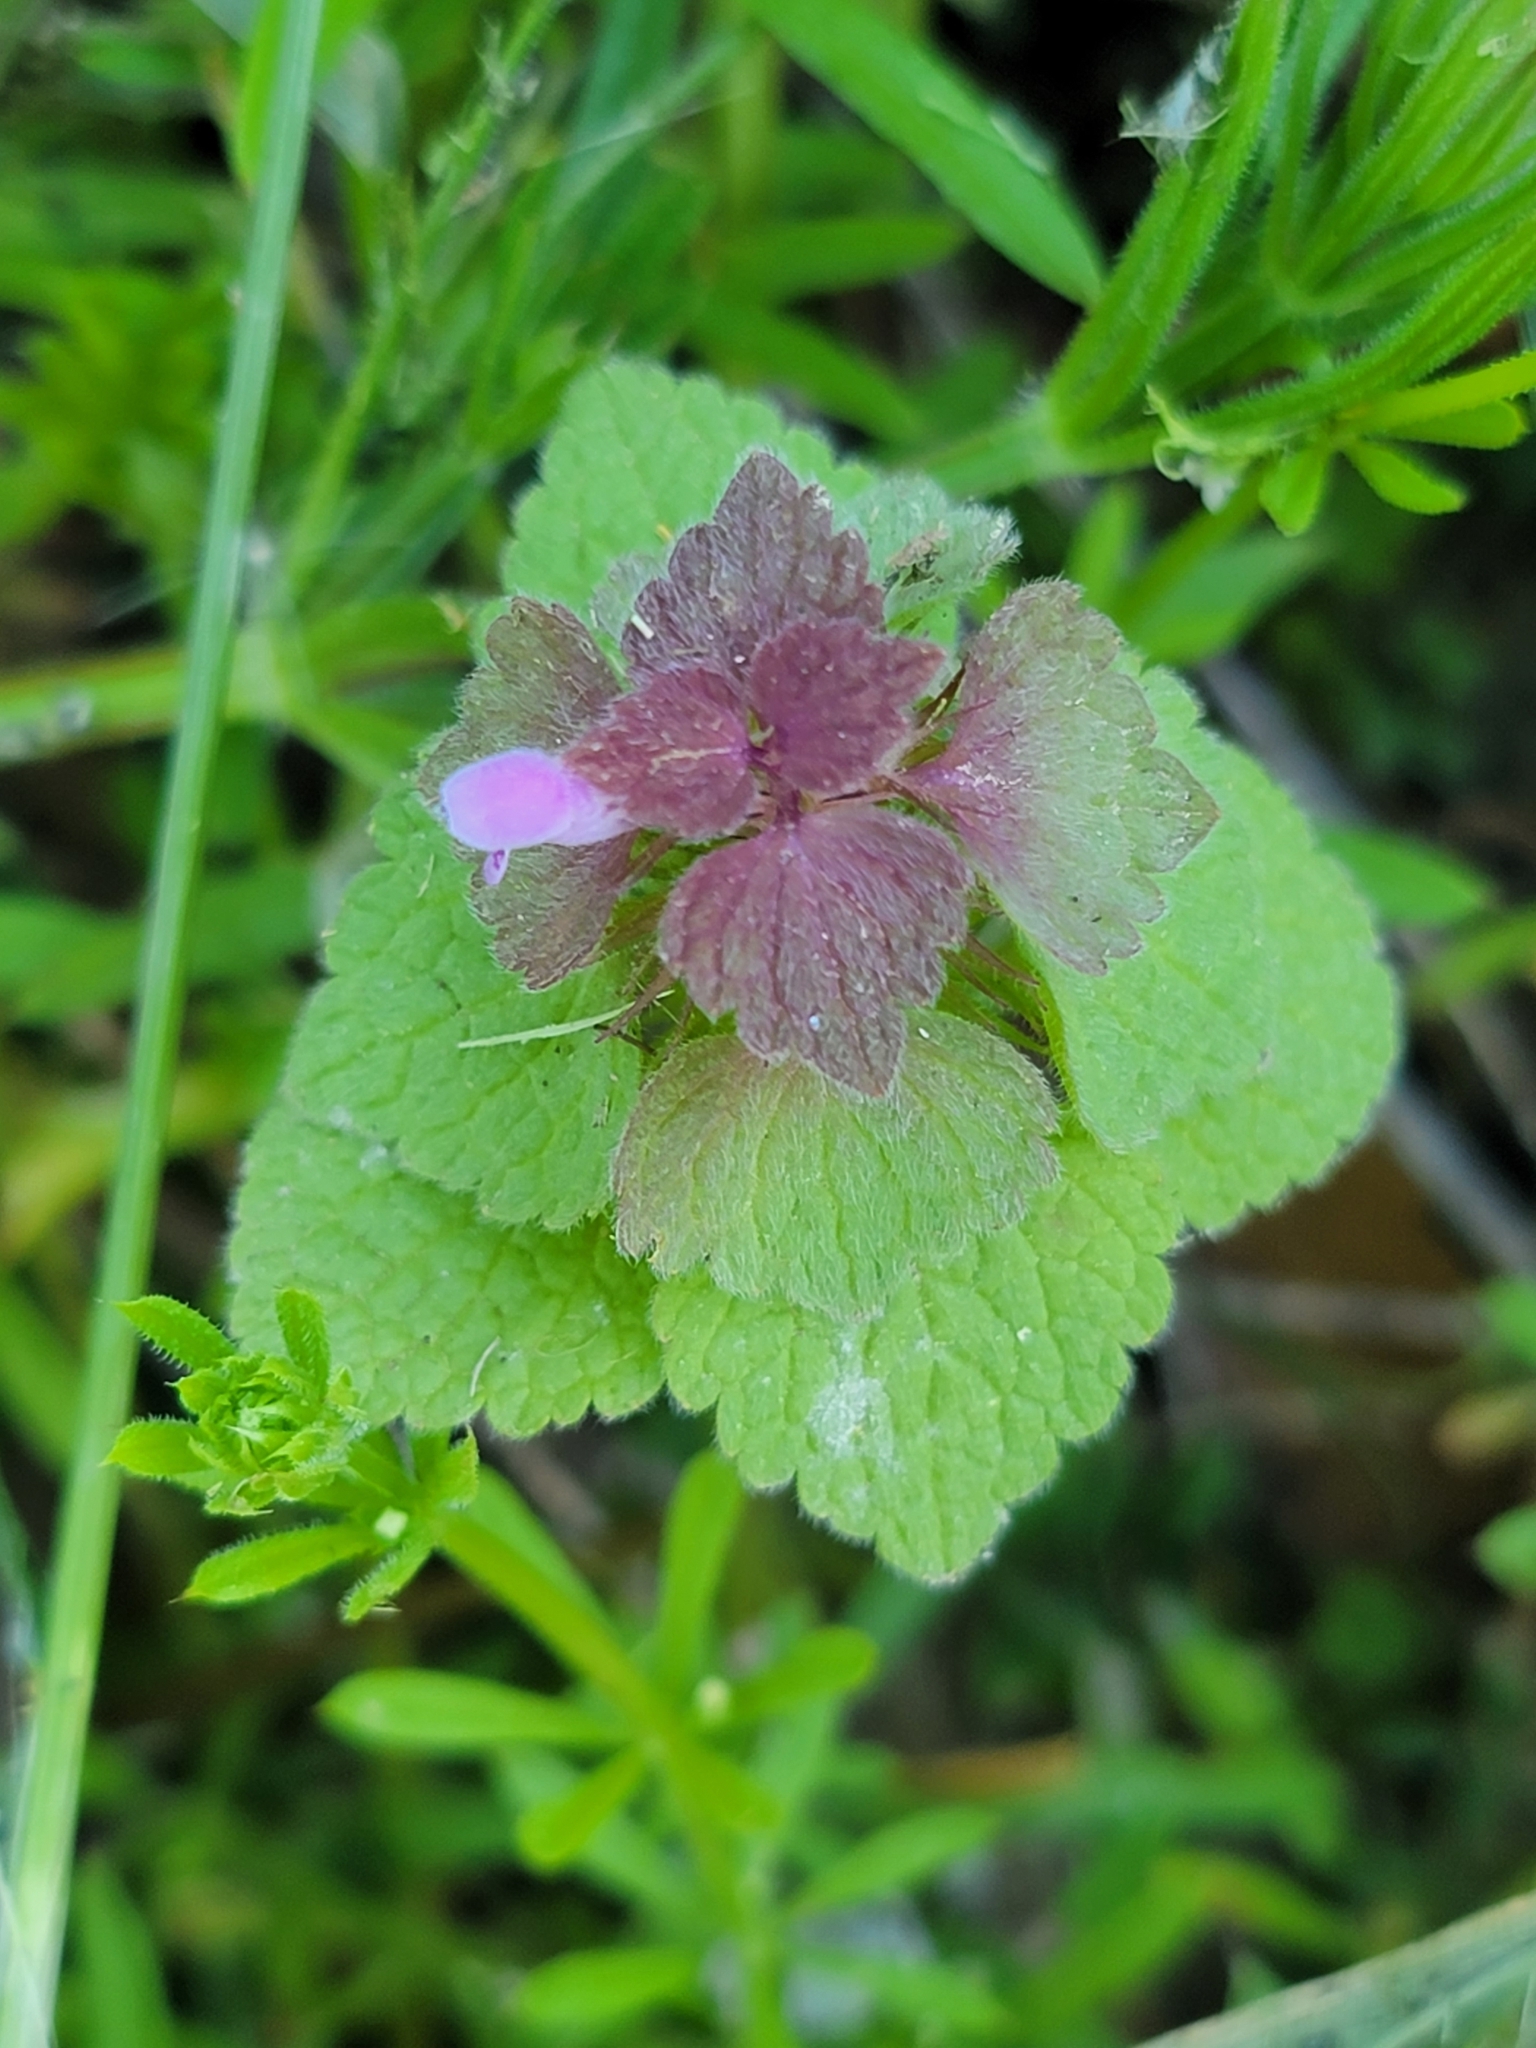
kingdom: Plantae
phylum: Tracheophyta
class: Magnoliopsida
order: Lamiales
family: Lamiaceae
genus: Lamium
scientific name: Lamium purpureum
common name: Red dead-nettle
